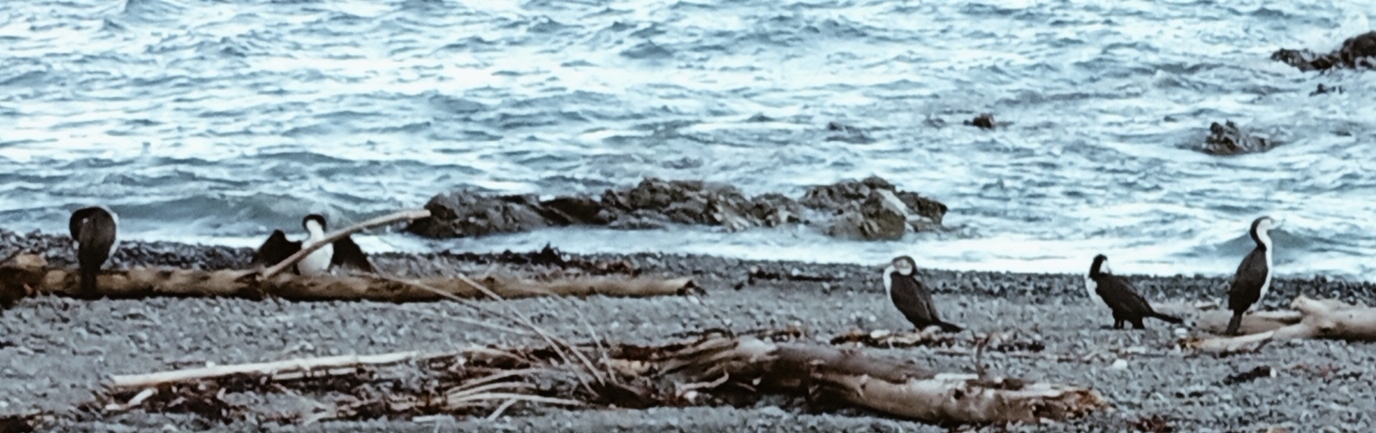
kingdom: Animalia
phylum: Chordata
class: Aves
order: Suliformes
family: Phalacrocoracidae
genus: Phalacrocorax
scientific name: Phalacrocorax varius
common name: Pied cormorant
